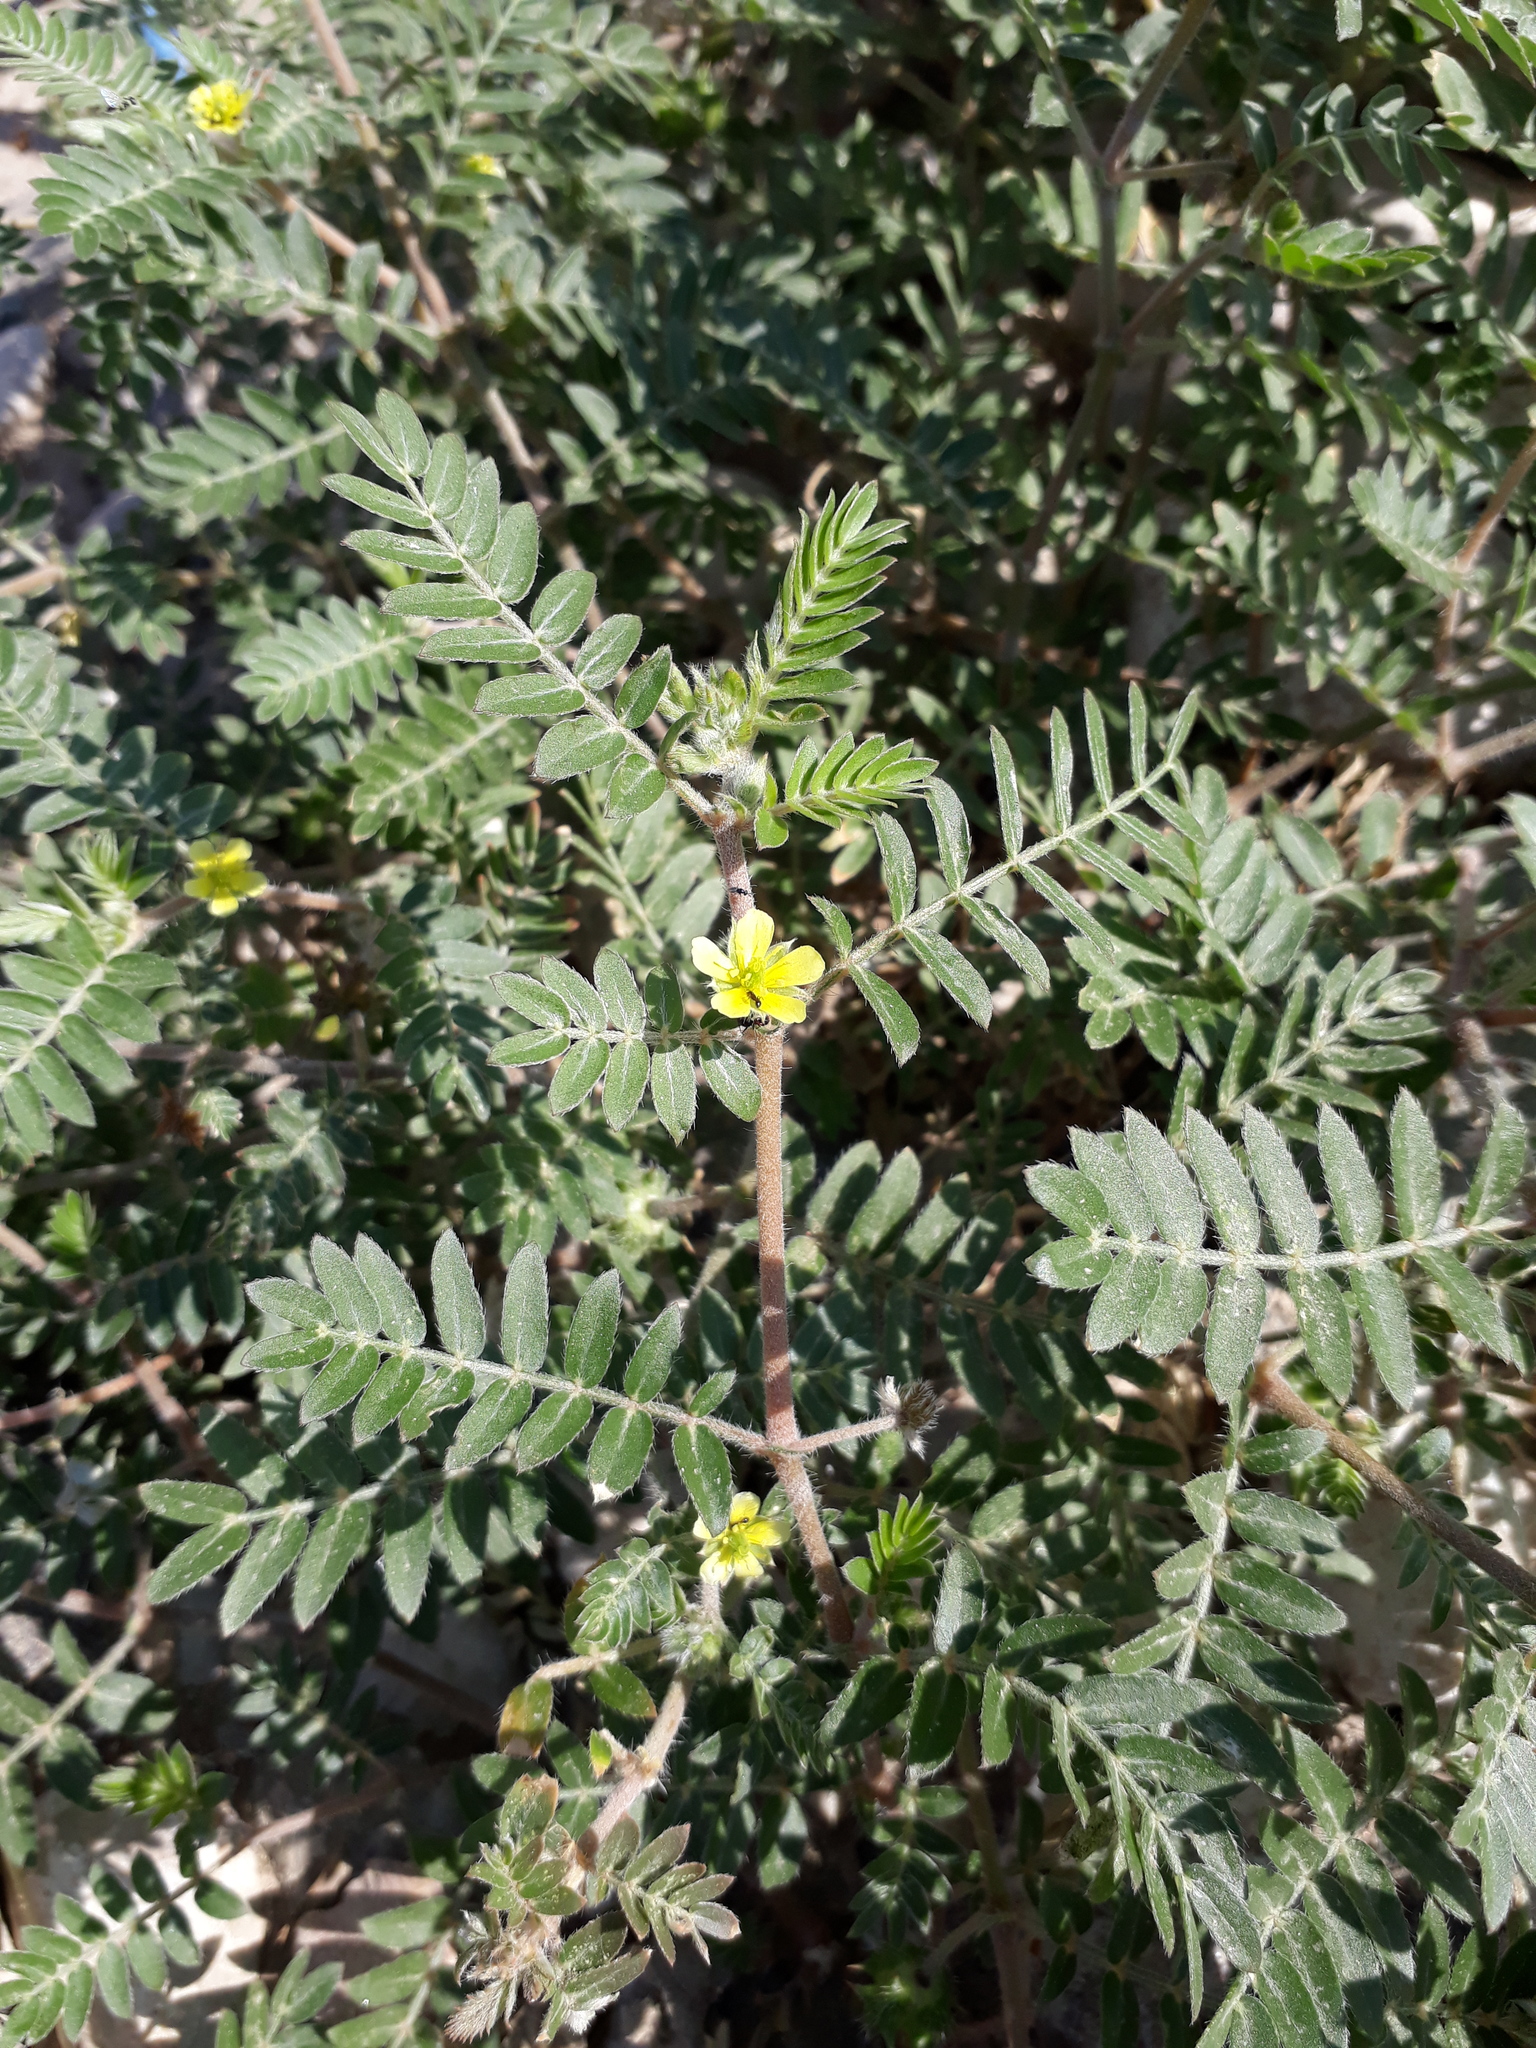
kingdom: Plantae
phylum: Tracheophyta
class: Magnoliopsida
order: Zygophyllales
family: Zygophyllaceae
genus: Tribulus
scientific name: Tribulus terrestris
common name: Puncturevine
